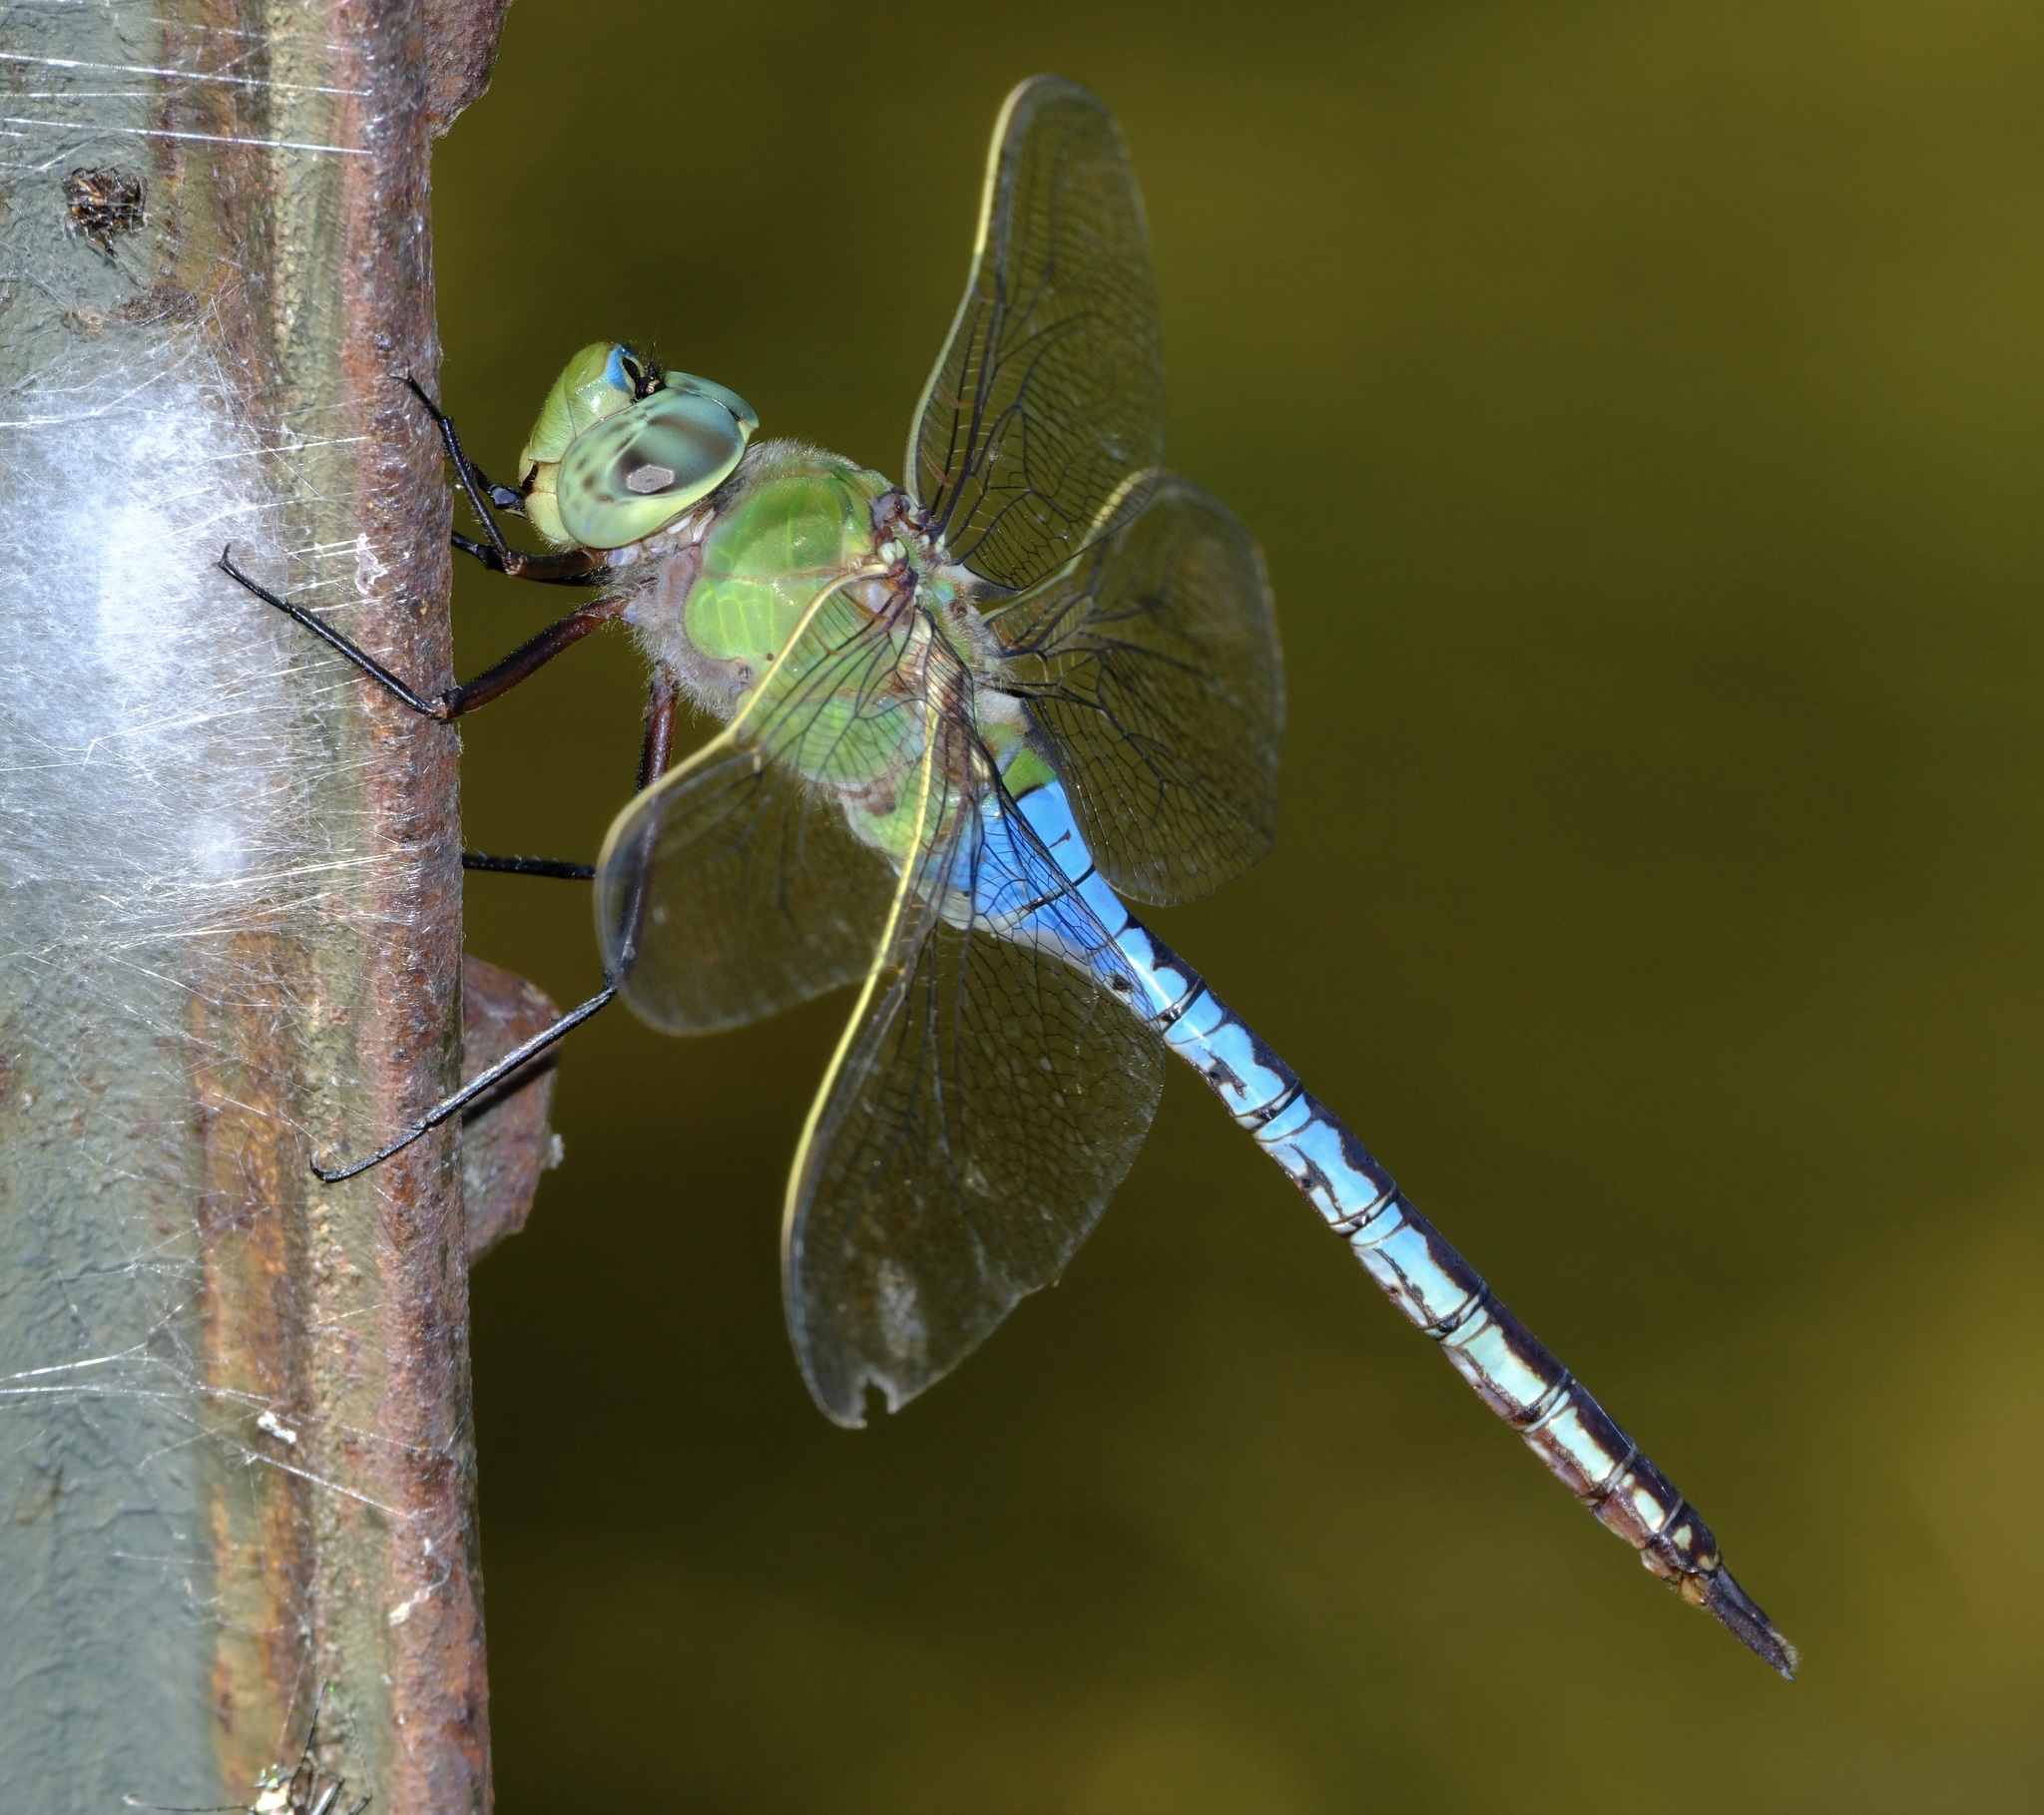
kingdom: Animalia
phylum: Arthropoda
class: Insecta
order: Odonata
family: Aeshnidae
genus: Anax
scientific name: Anax junius
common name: Common green darner
